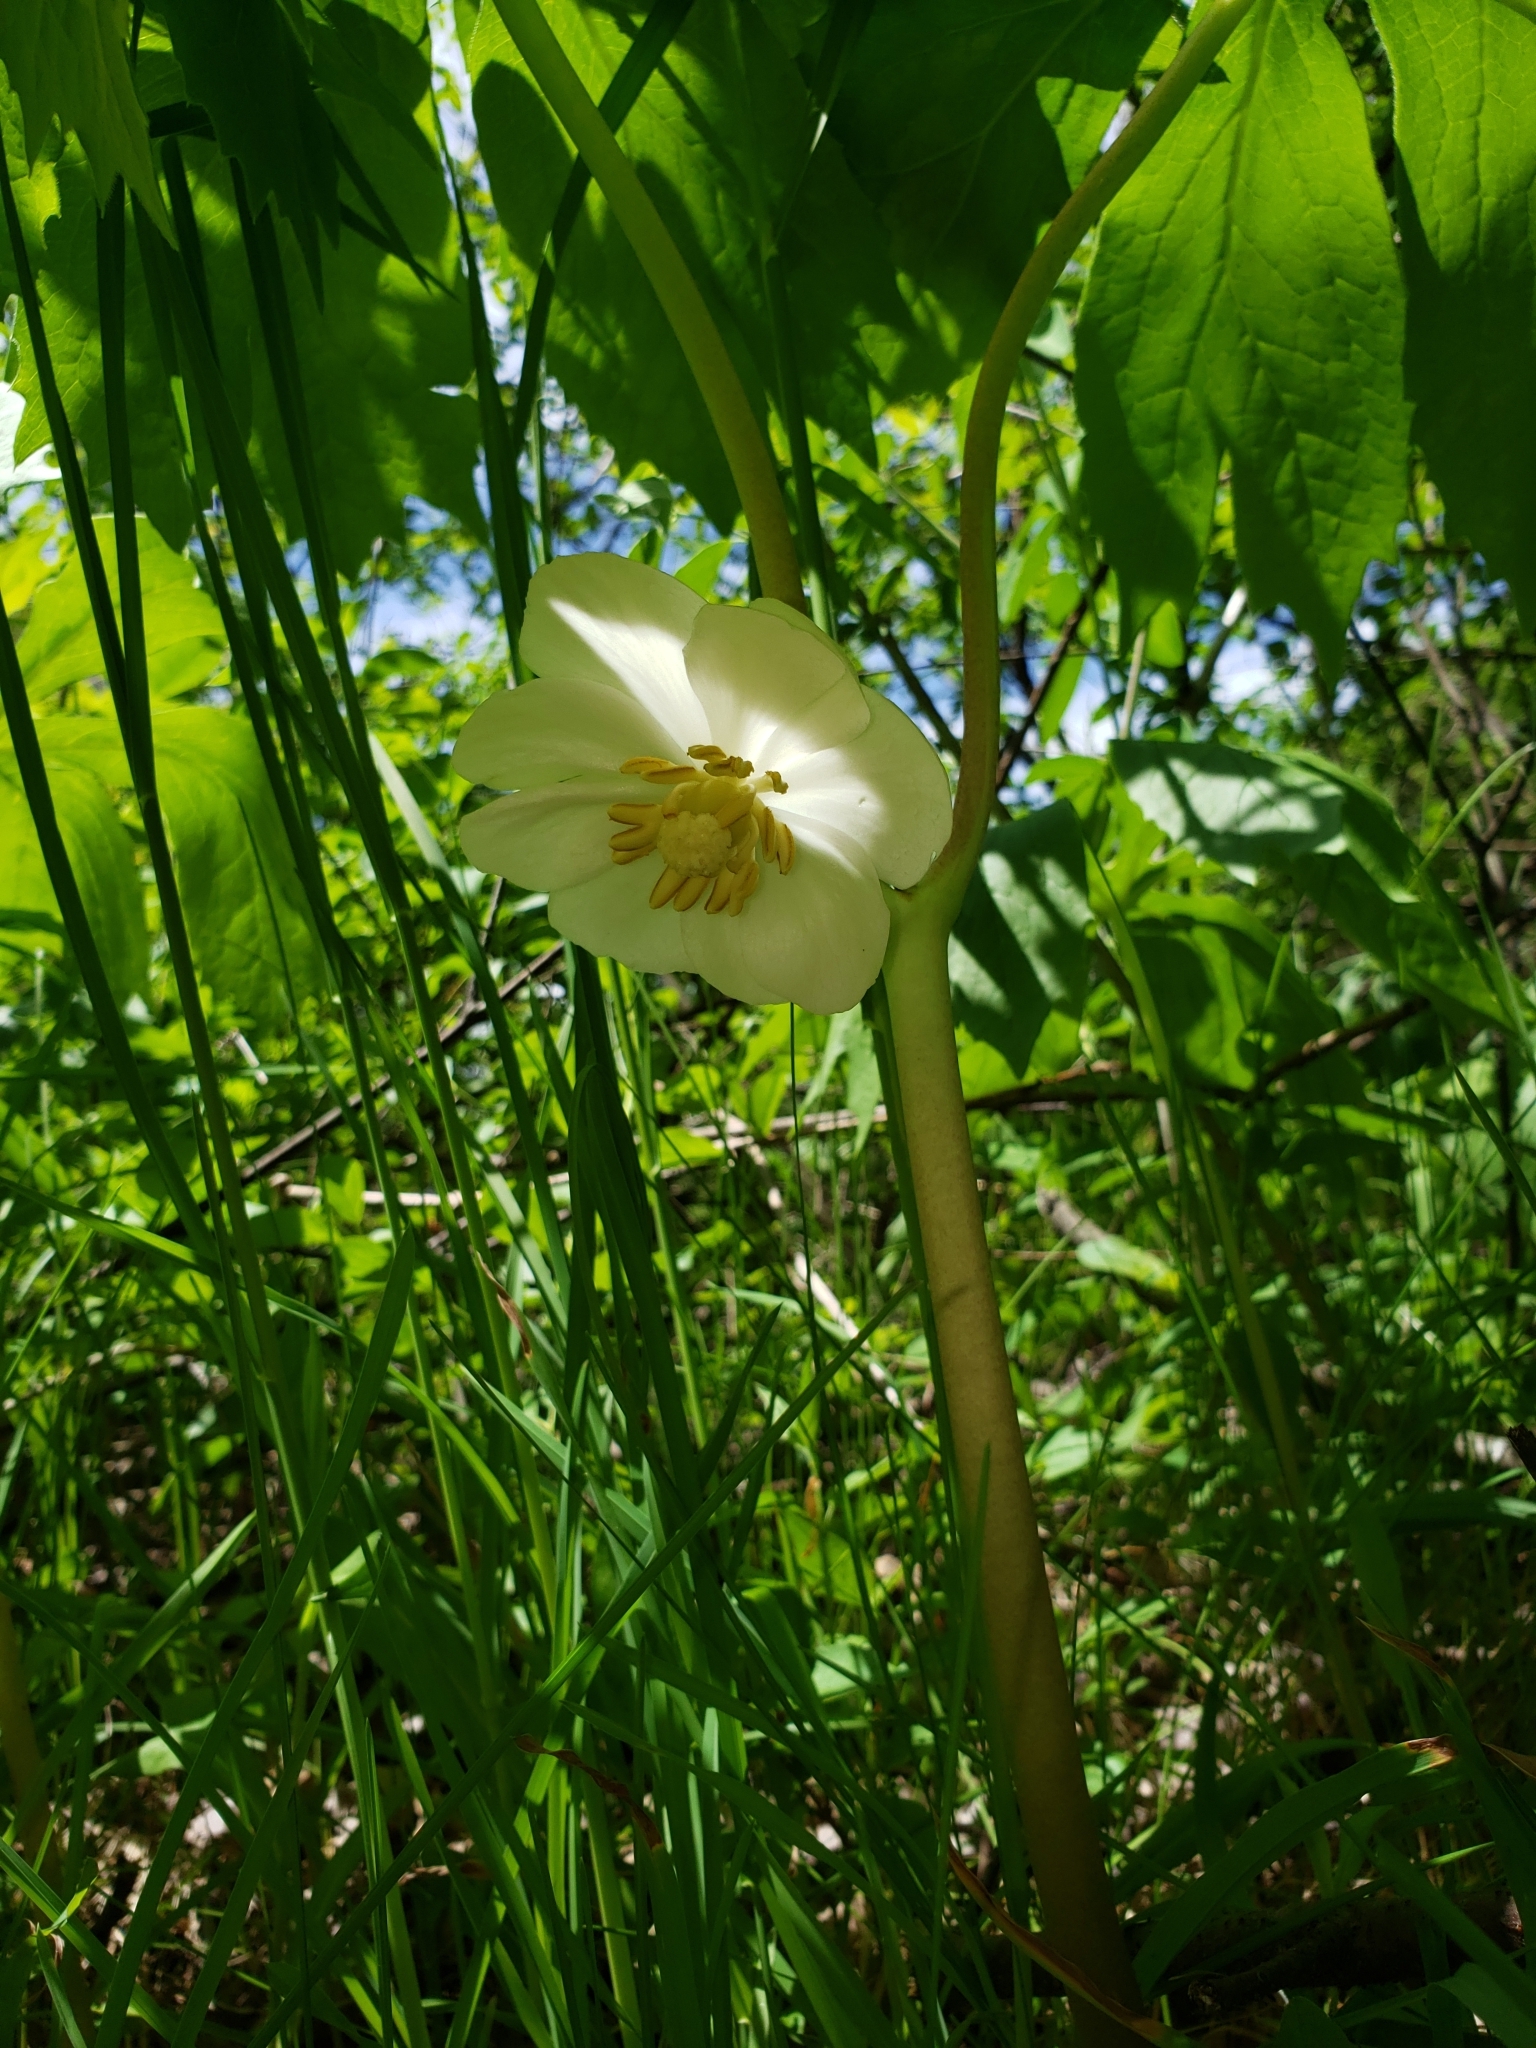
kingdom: Plantae
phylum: Tracheophyta
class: Magnoliopsida
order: Ranunculales
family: Berberidaceae
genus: Podophyllum
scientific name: Podophyllum peltatum
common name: Wild mandrake
